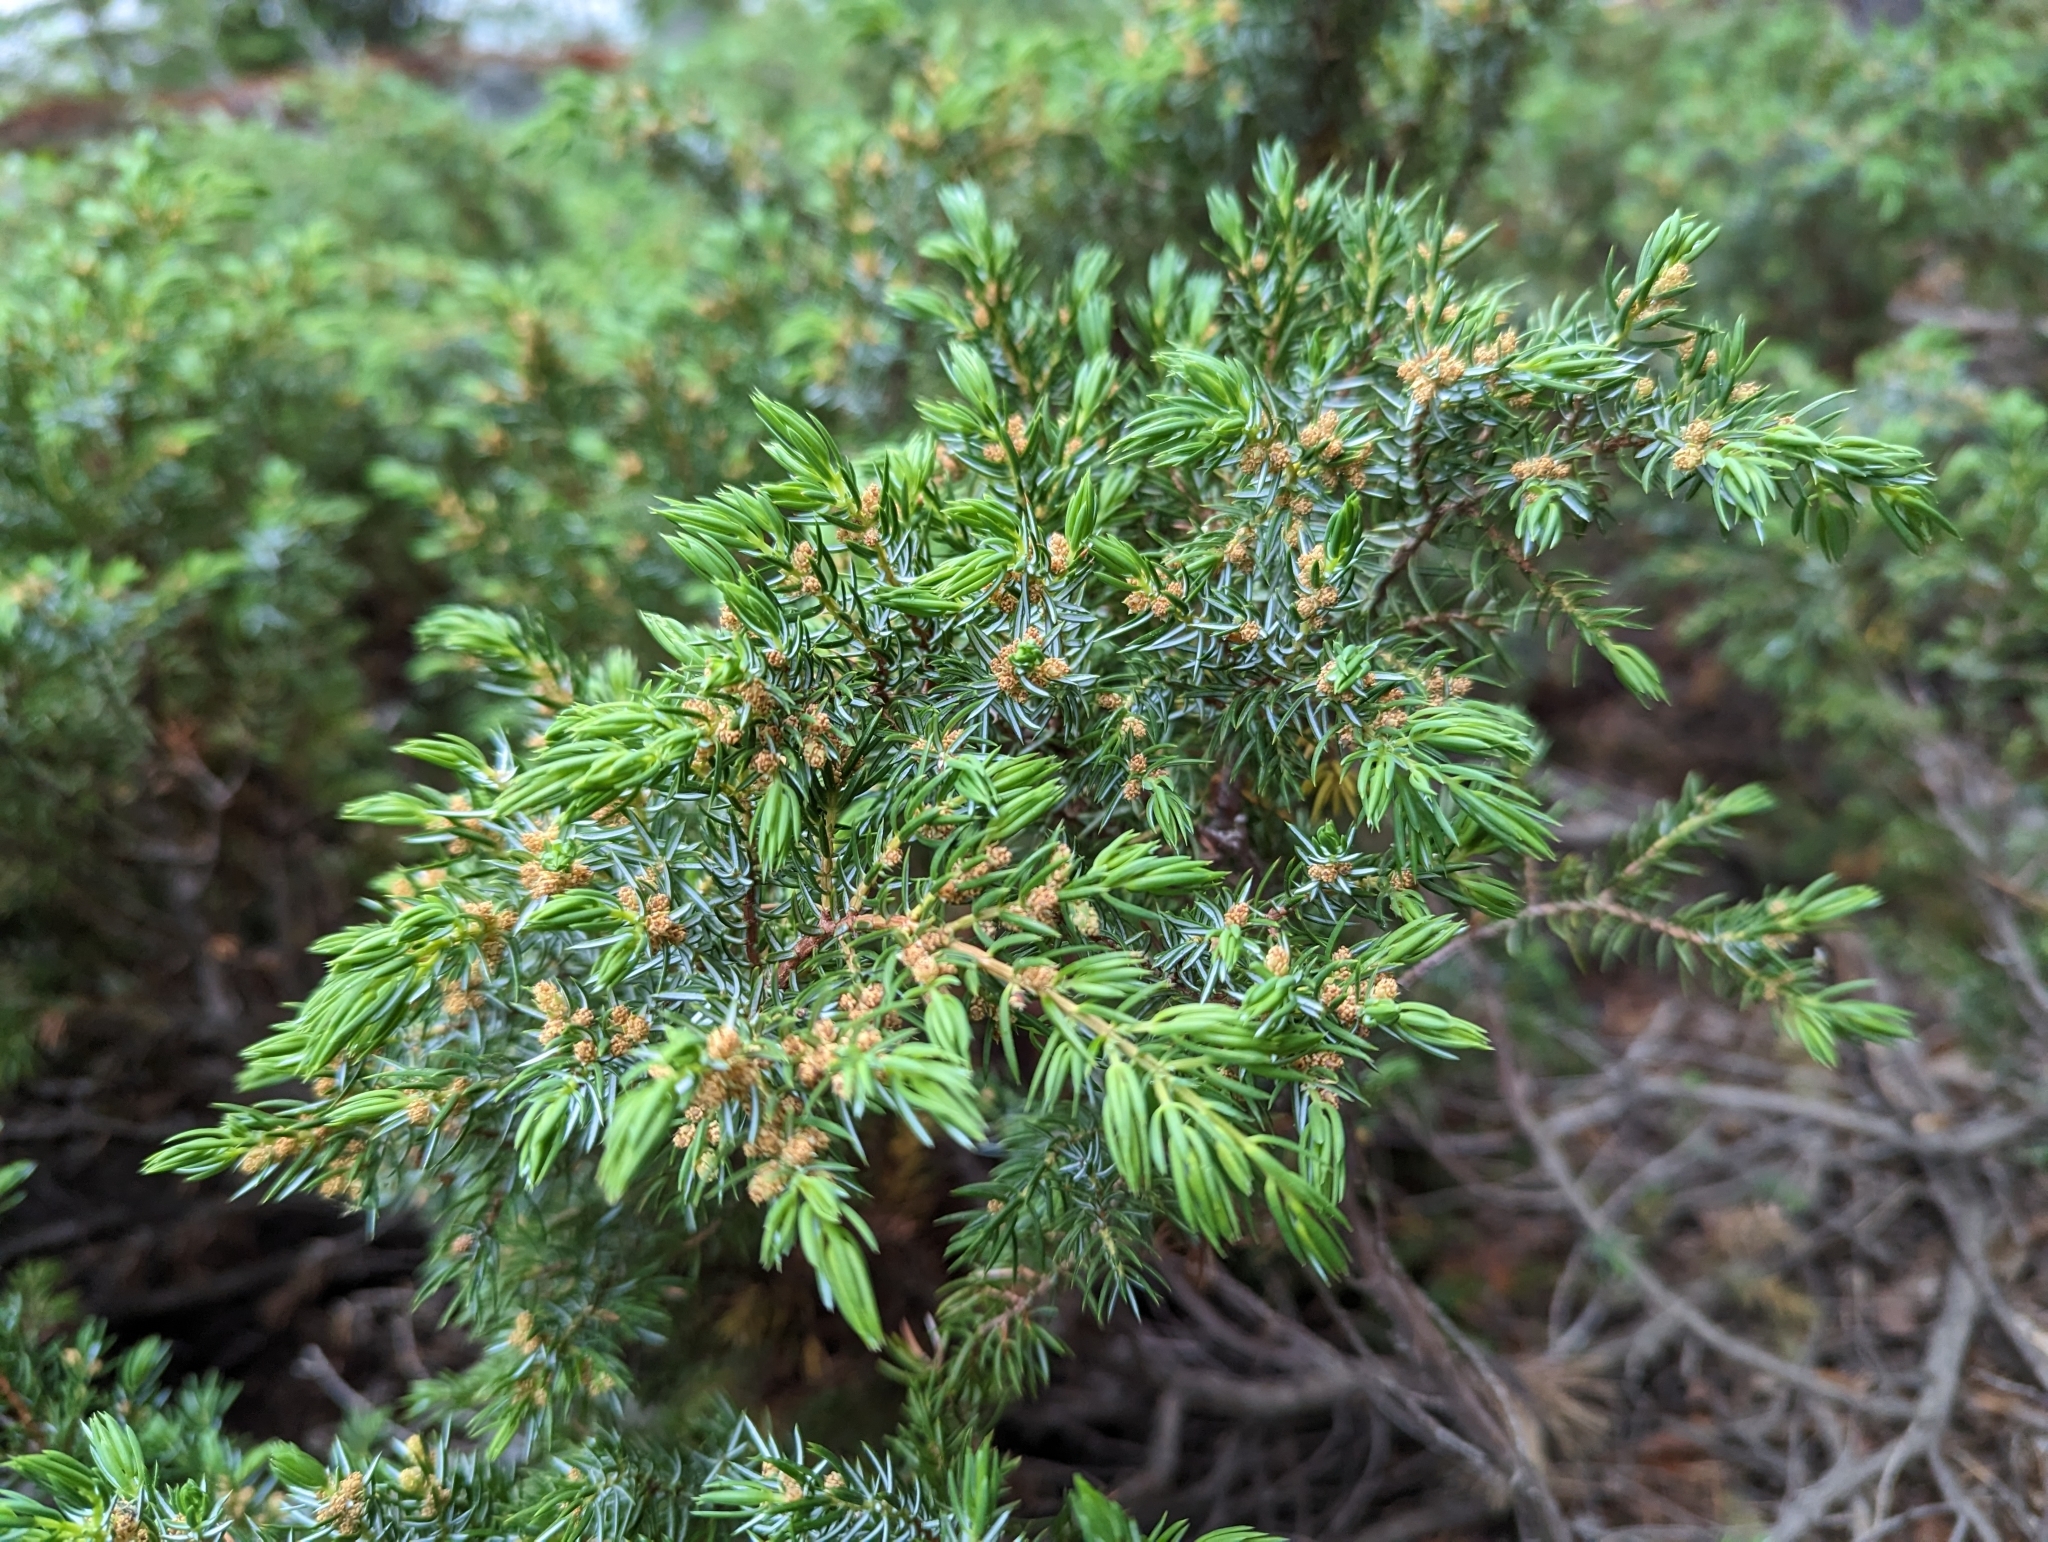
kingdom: Plantae
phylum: Tracheophyta
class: Pinopsida
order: Pinales
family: Cupressaceae
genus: Juniperus
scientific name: Juniperus communis
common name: Common juniper
